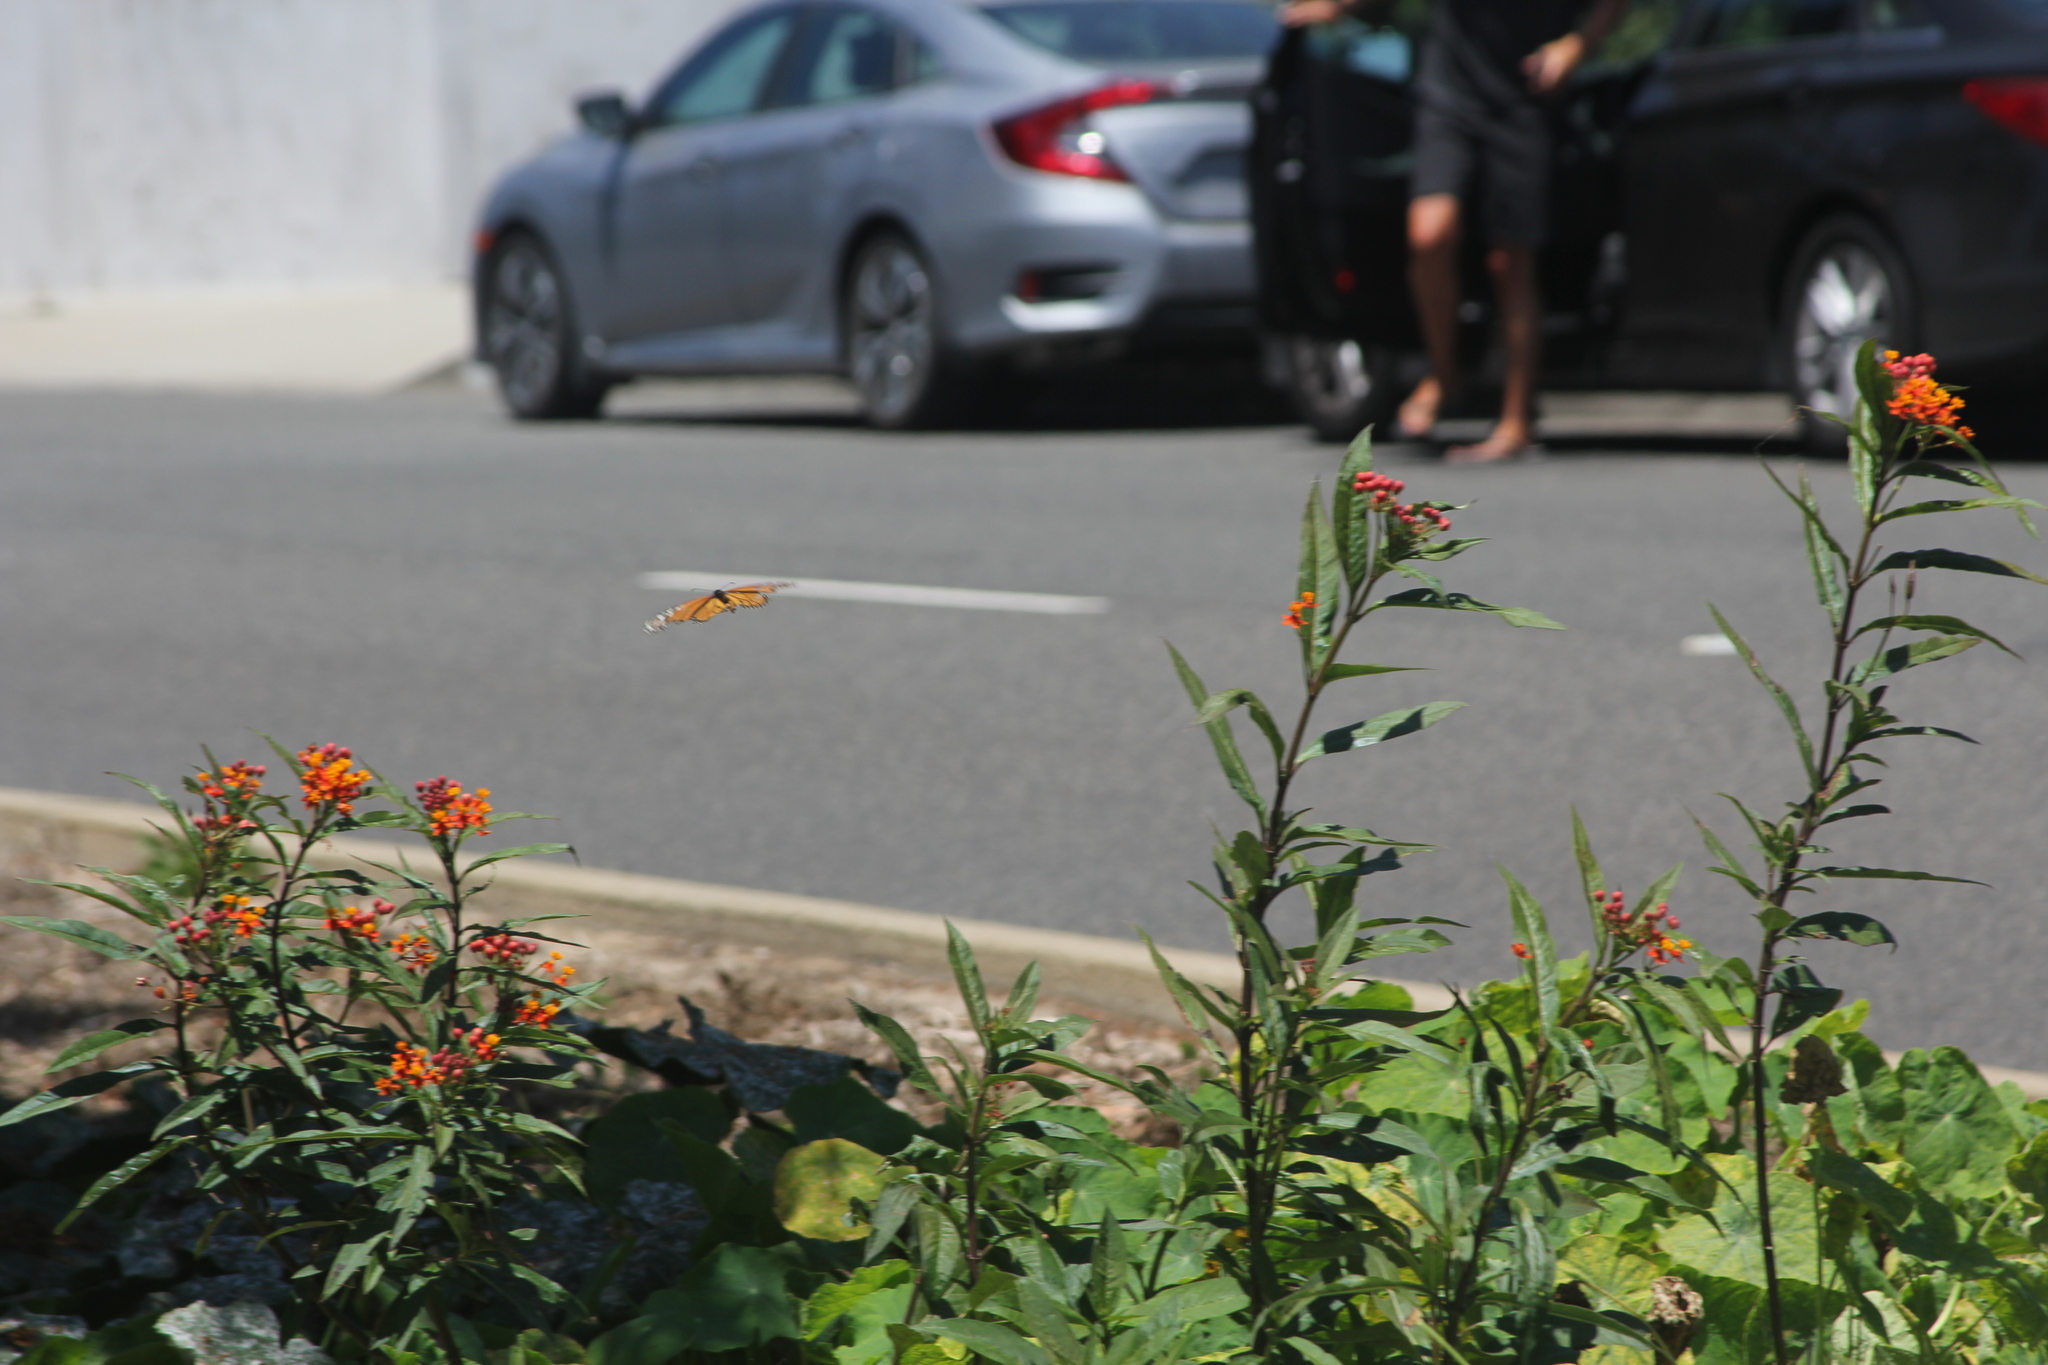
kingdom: Animalia
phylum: Arthropoda
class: Insecta
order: Lepidoptera
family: Nymphalidae
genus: Danaus
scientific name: Danaus plexippus
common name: Monarch
